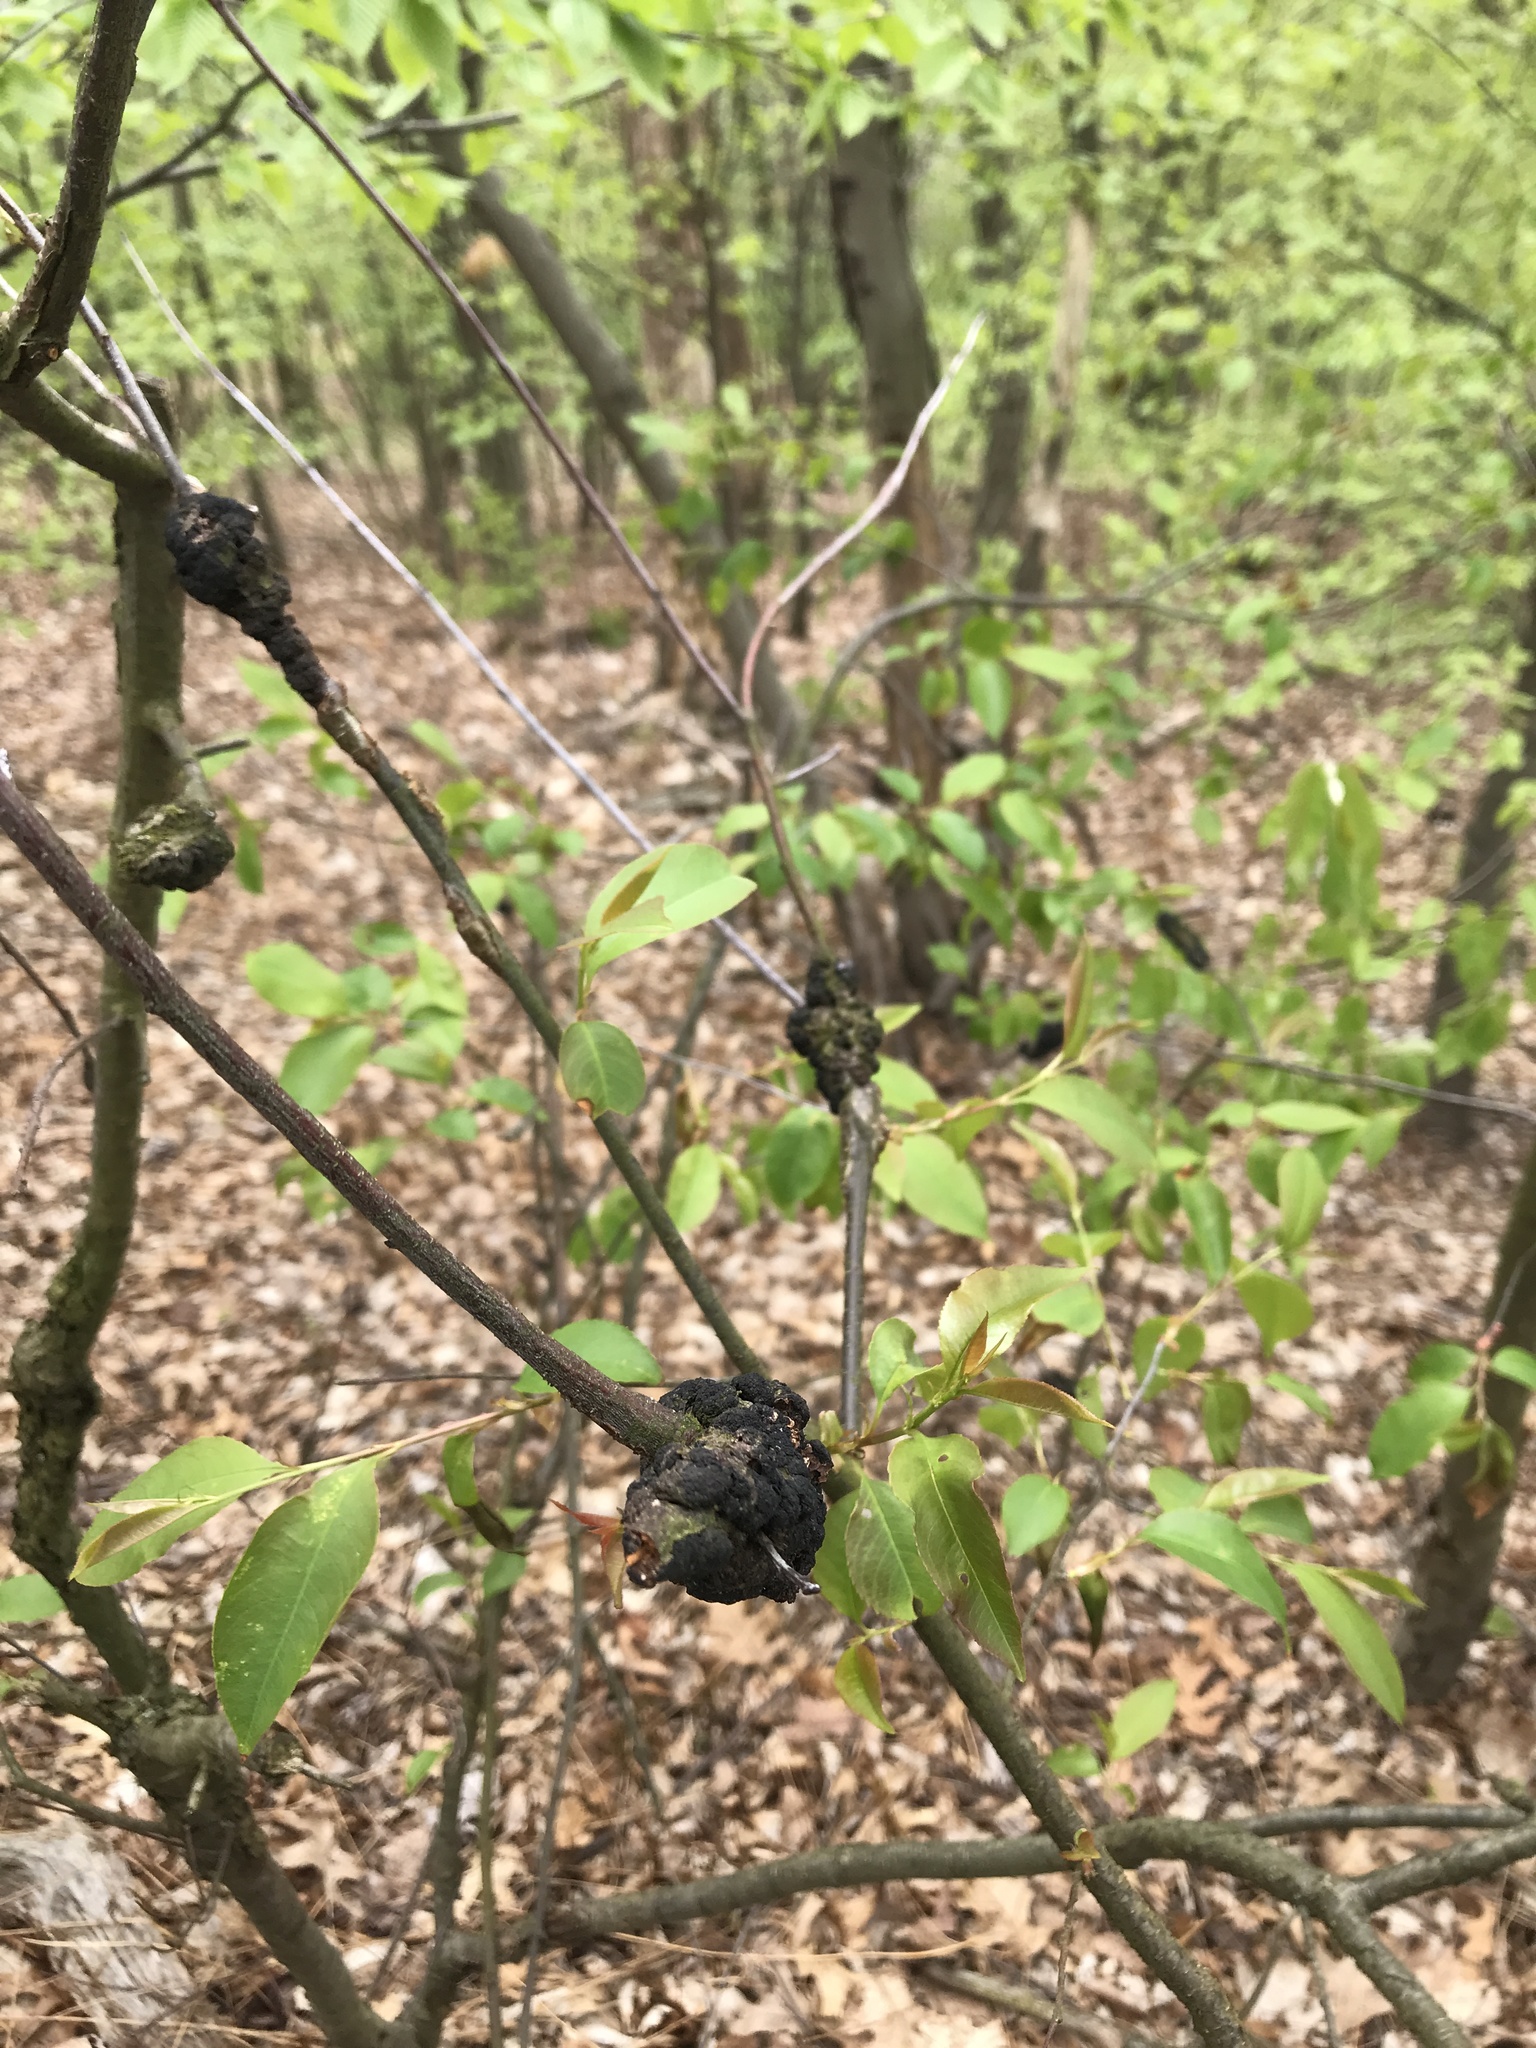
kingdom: Fungi
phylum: Ascomycota
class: Dothideomycetes
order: Venturiales
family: Venturiaceae
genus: Apiosporina
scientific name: Apiosporina morbosa
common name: Black knot
